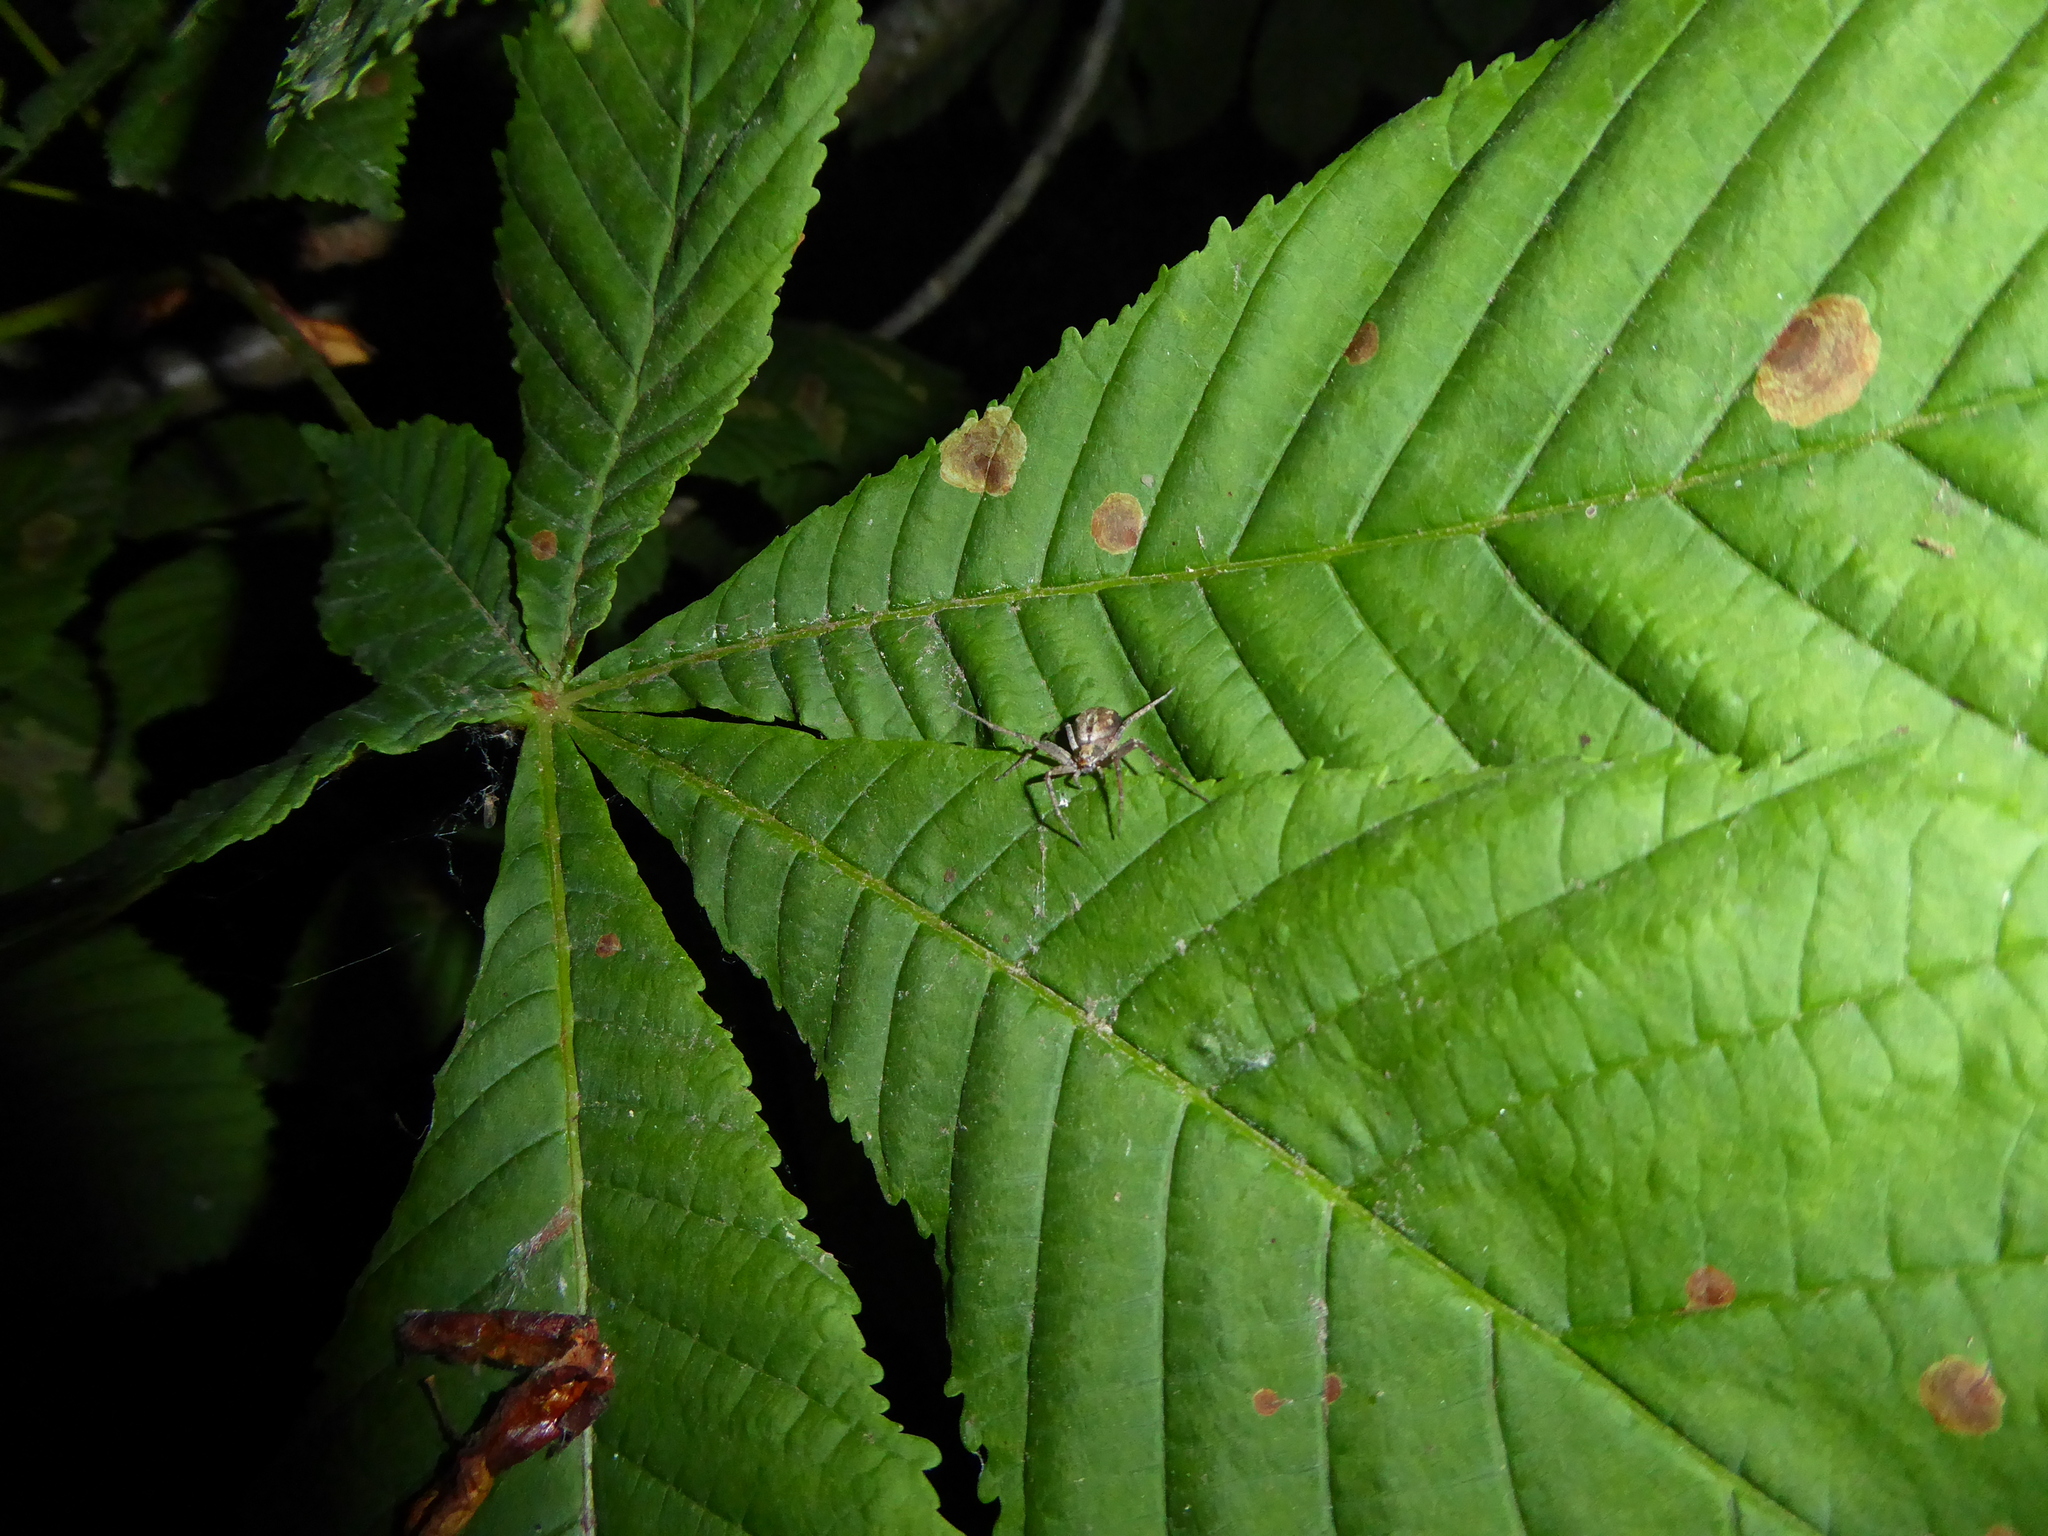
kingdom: Animalia
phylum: Arthropoda
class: Arachnida
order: Araneae
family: Philodromidae
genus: Philodromus
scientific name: Philodromus
